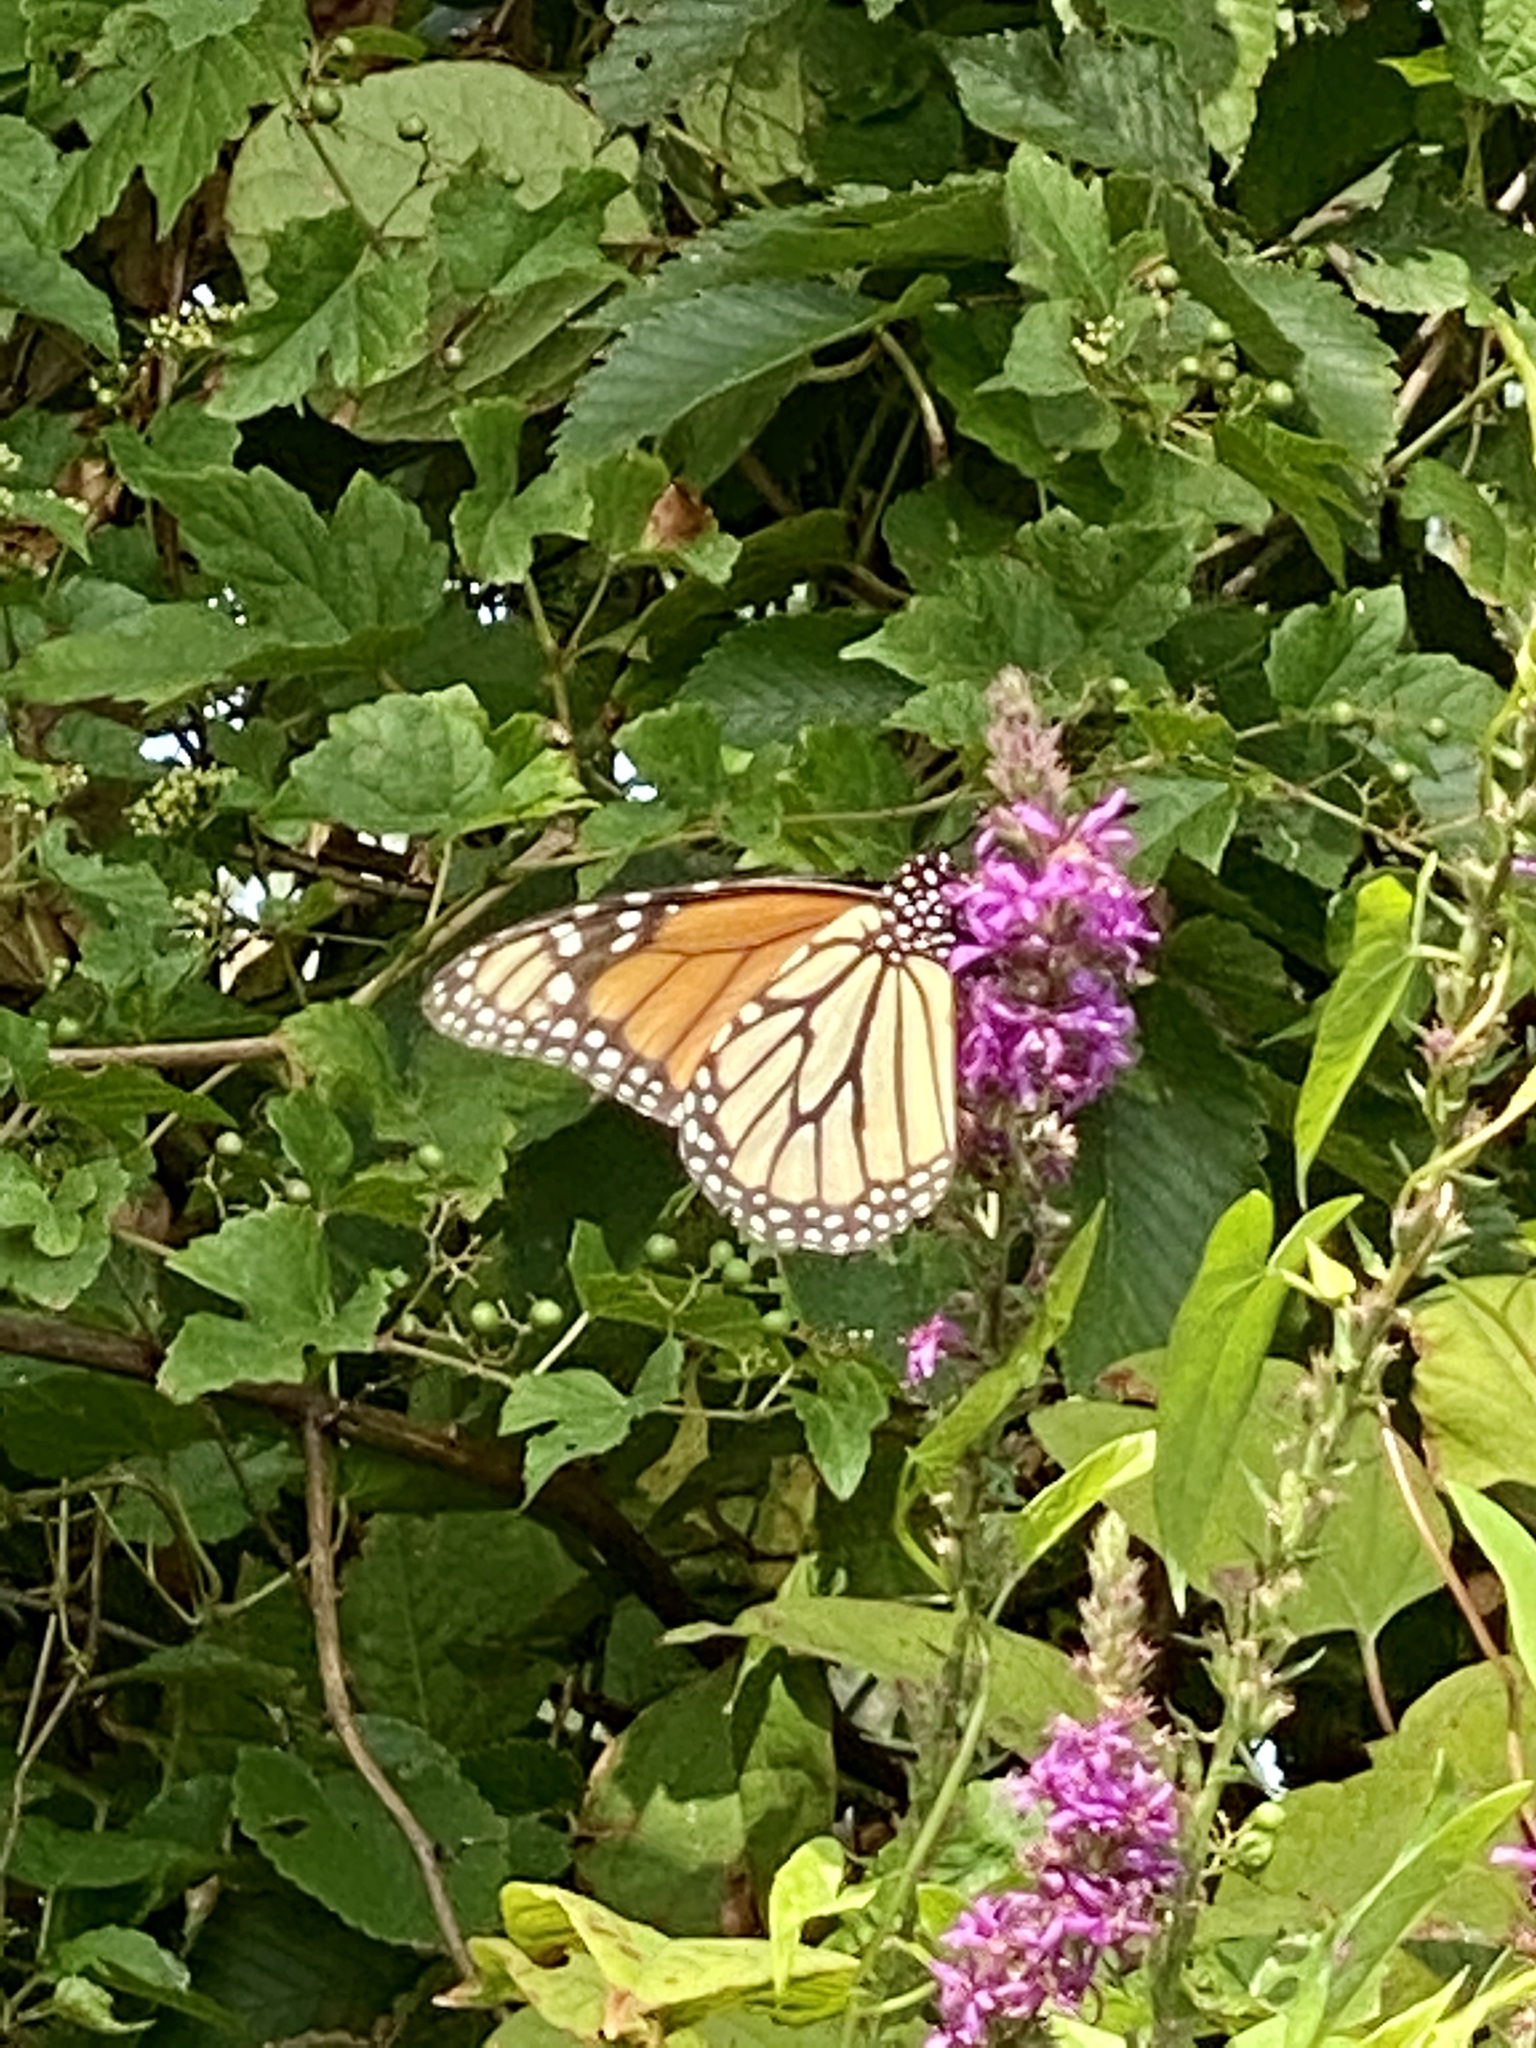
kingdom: Animalia
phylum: Arthropoda
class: Insecta
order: Lepidoptera
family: Nymphalidae
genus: Danaus
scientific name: Danaus plexippus
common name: Monarch
